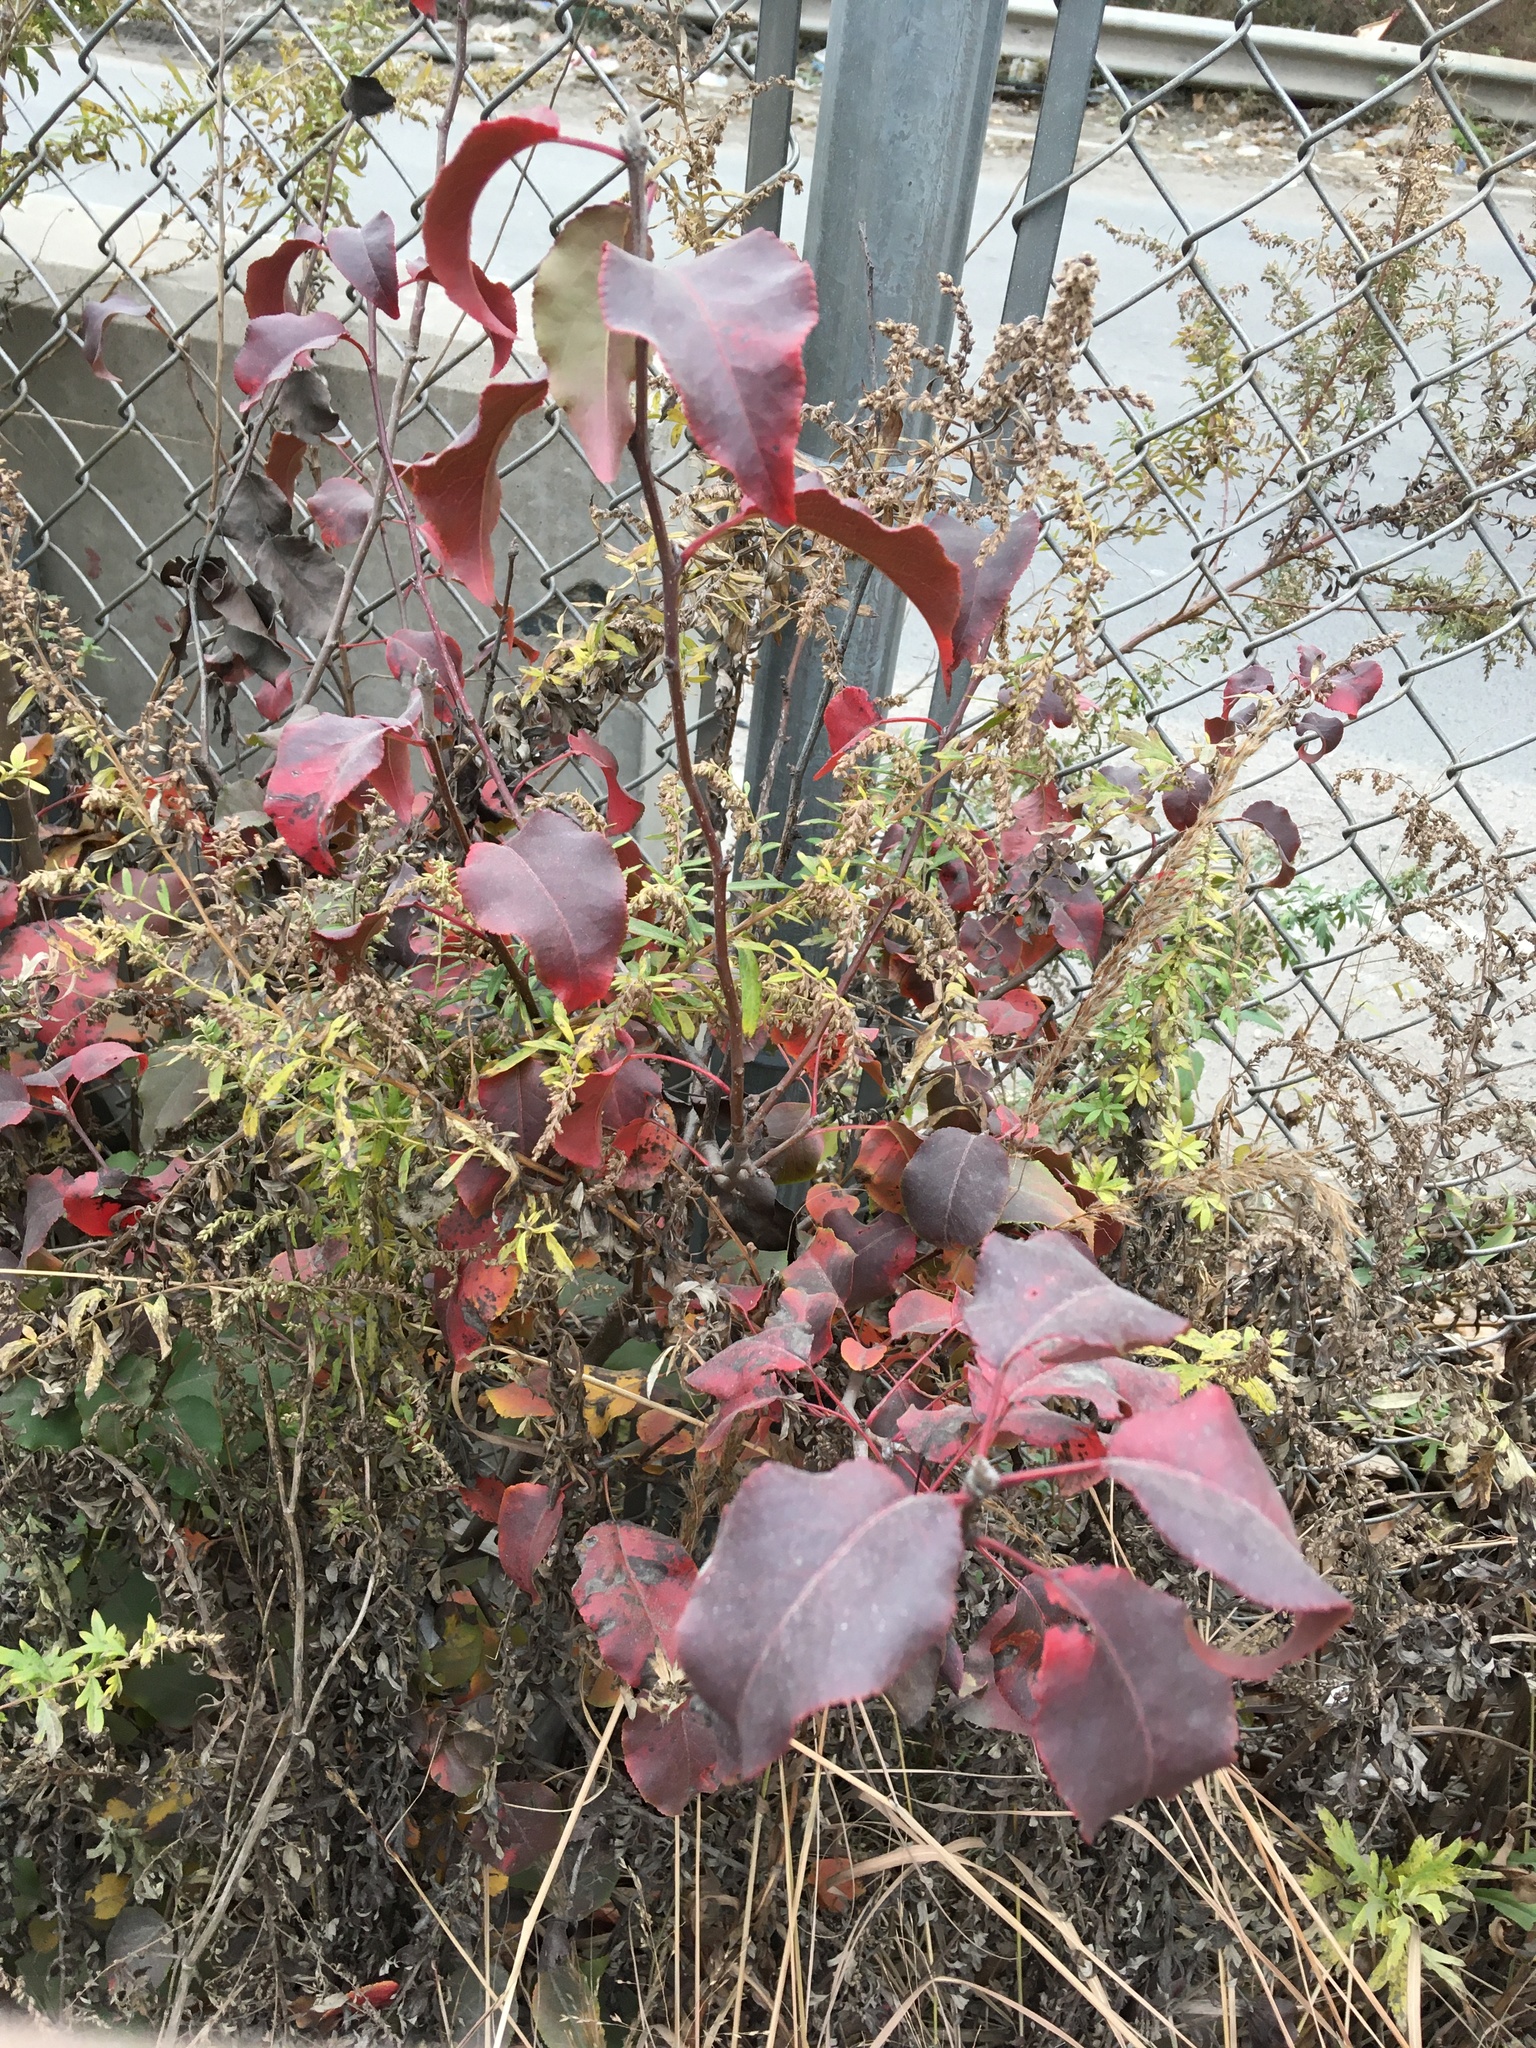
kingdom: Plantae
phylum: Tracheophyta
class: Magnoliopsida
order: Rosales
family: Rosaceae
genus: Pyrus
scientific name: Pyrus calleryana
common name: Callery pear
